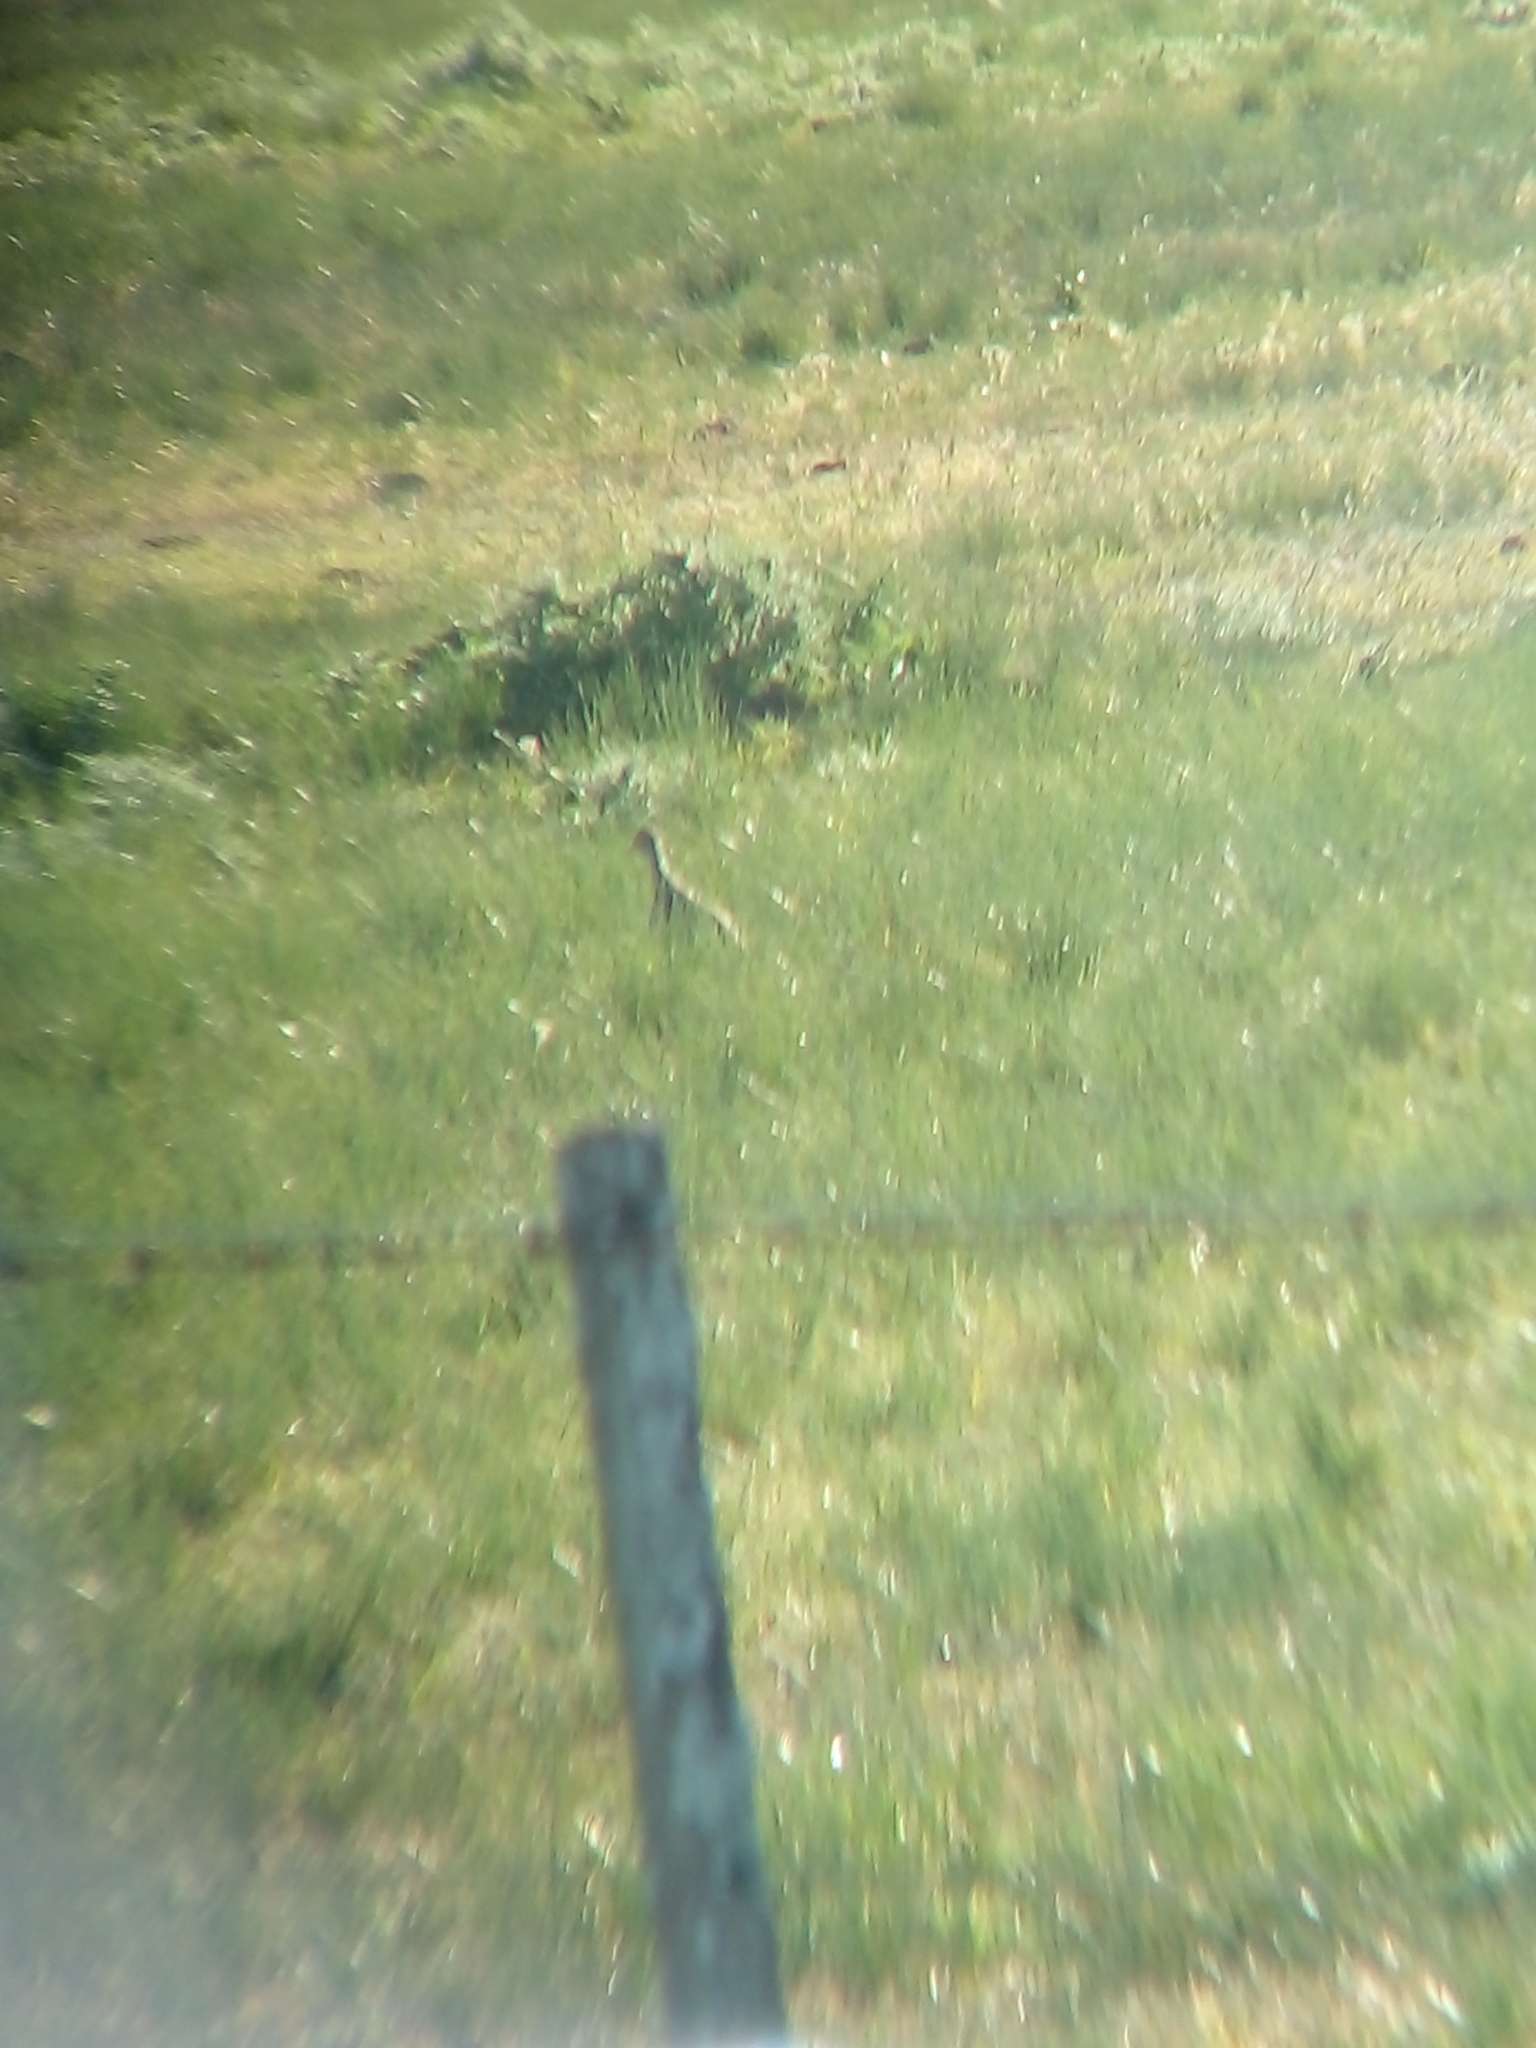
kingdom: Animalia
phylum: Chordata
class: Aves
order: Tinamiformes
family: Tinamidae
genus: Nothura
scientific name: Nothura maculosa
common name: Spotted nothura
